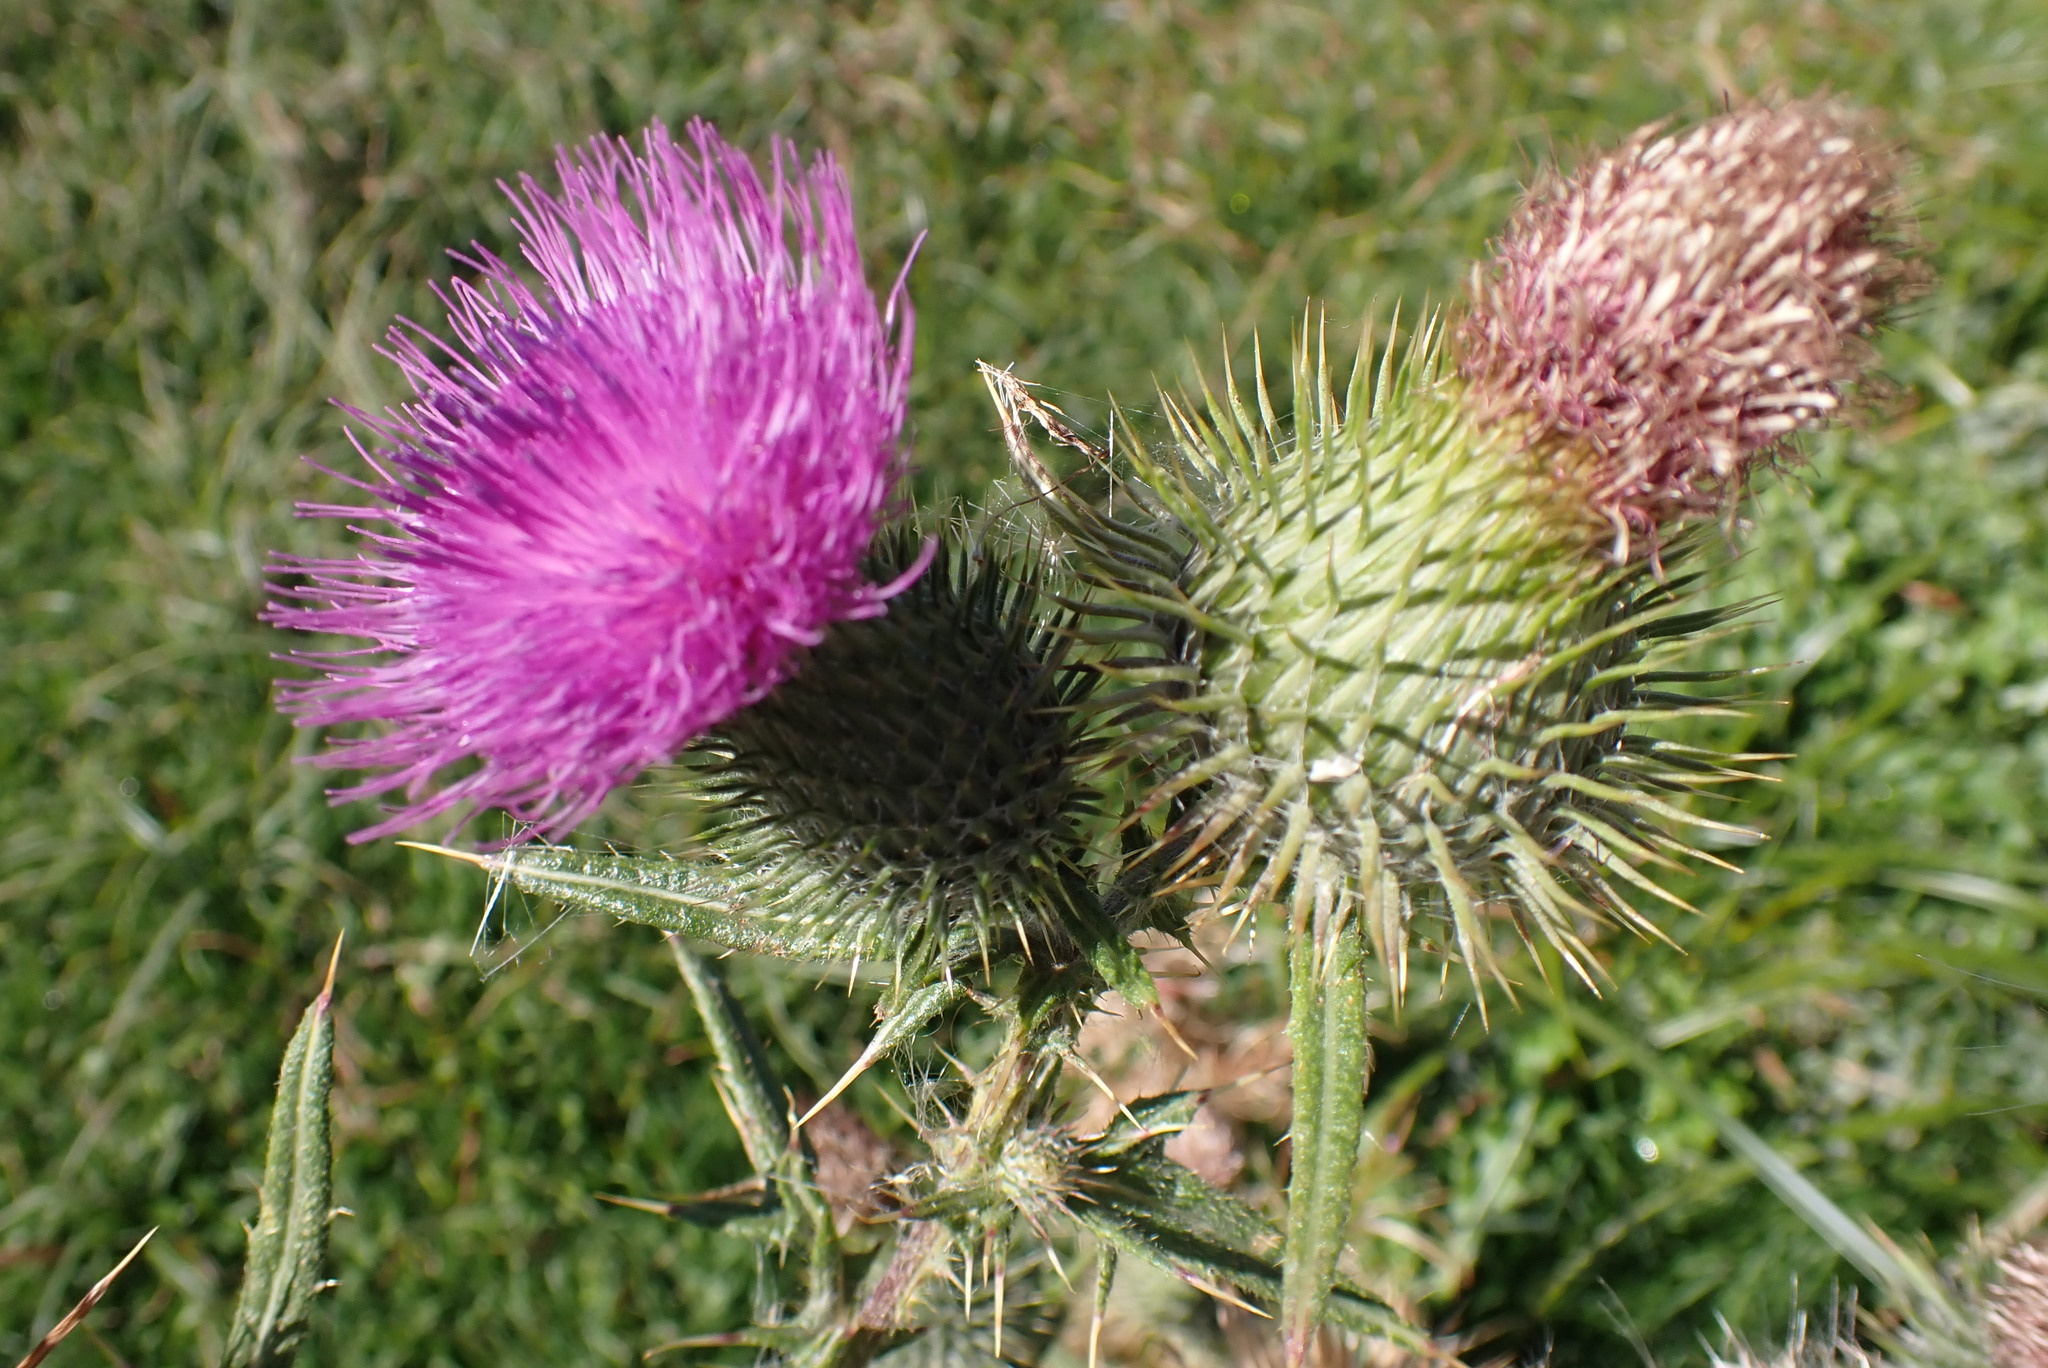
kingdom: Plantae
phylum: Tracheophyta
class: Magnoliopsida
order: Asterales
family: Asteraceae
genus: Cirsium
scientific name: Cirsium vulgare
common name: Bull thistle
